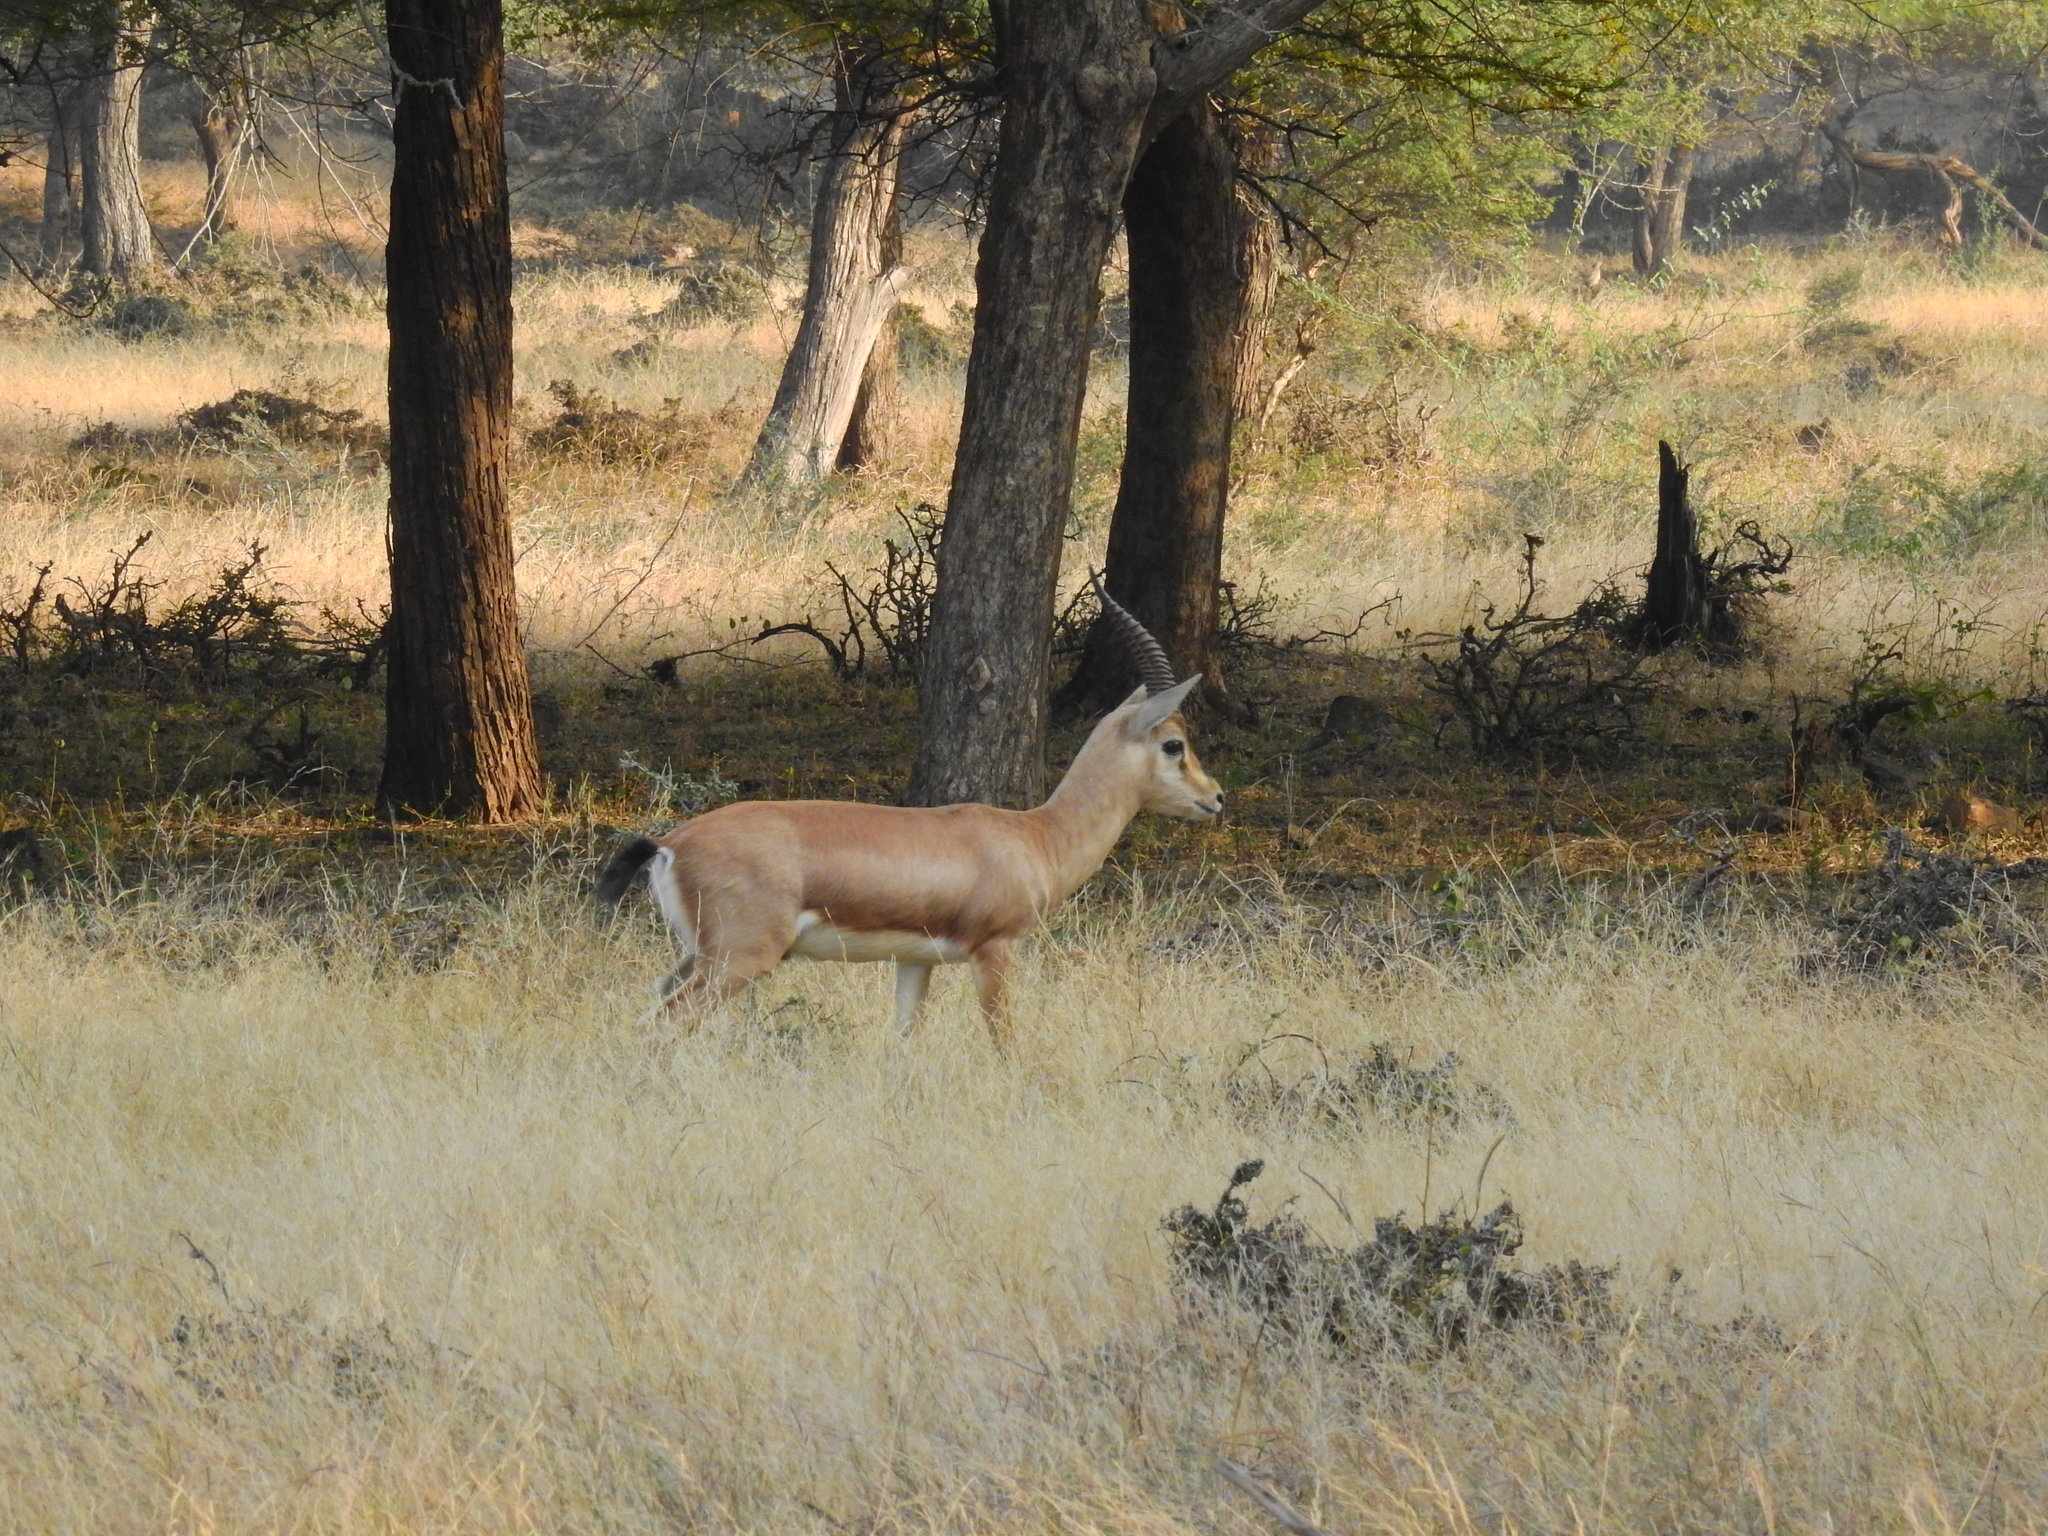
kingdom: Animalia
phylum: Chordata
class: Mammalia
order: Artiodactyla
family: Bovidae
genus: Gazella
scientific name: Gazella bennettii
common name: Indian gazelle
